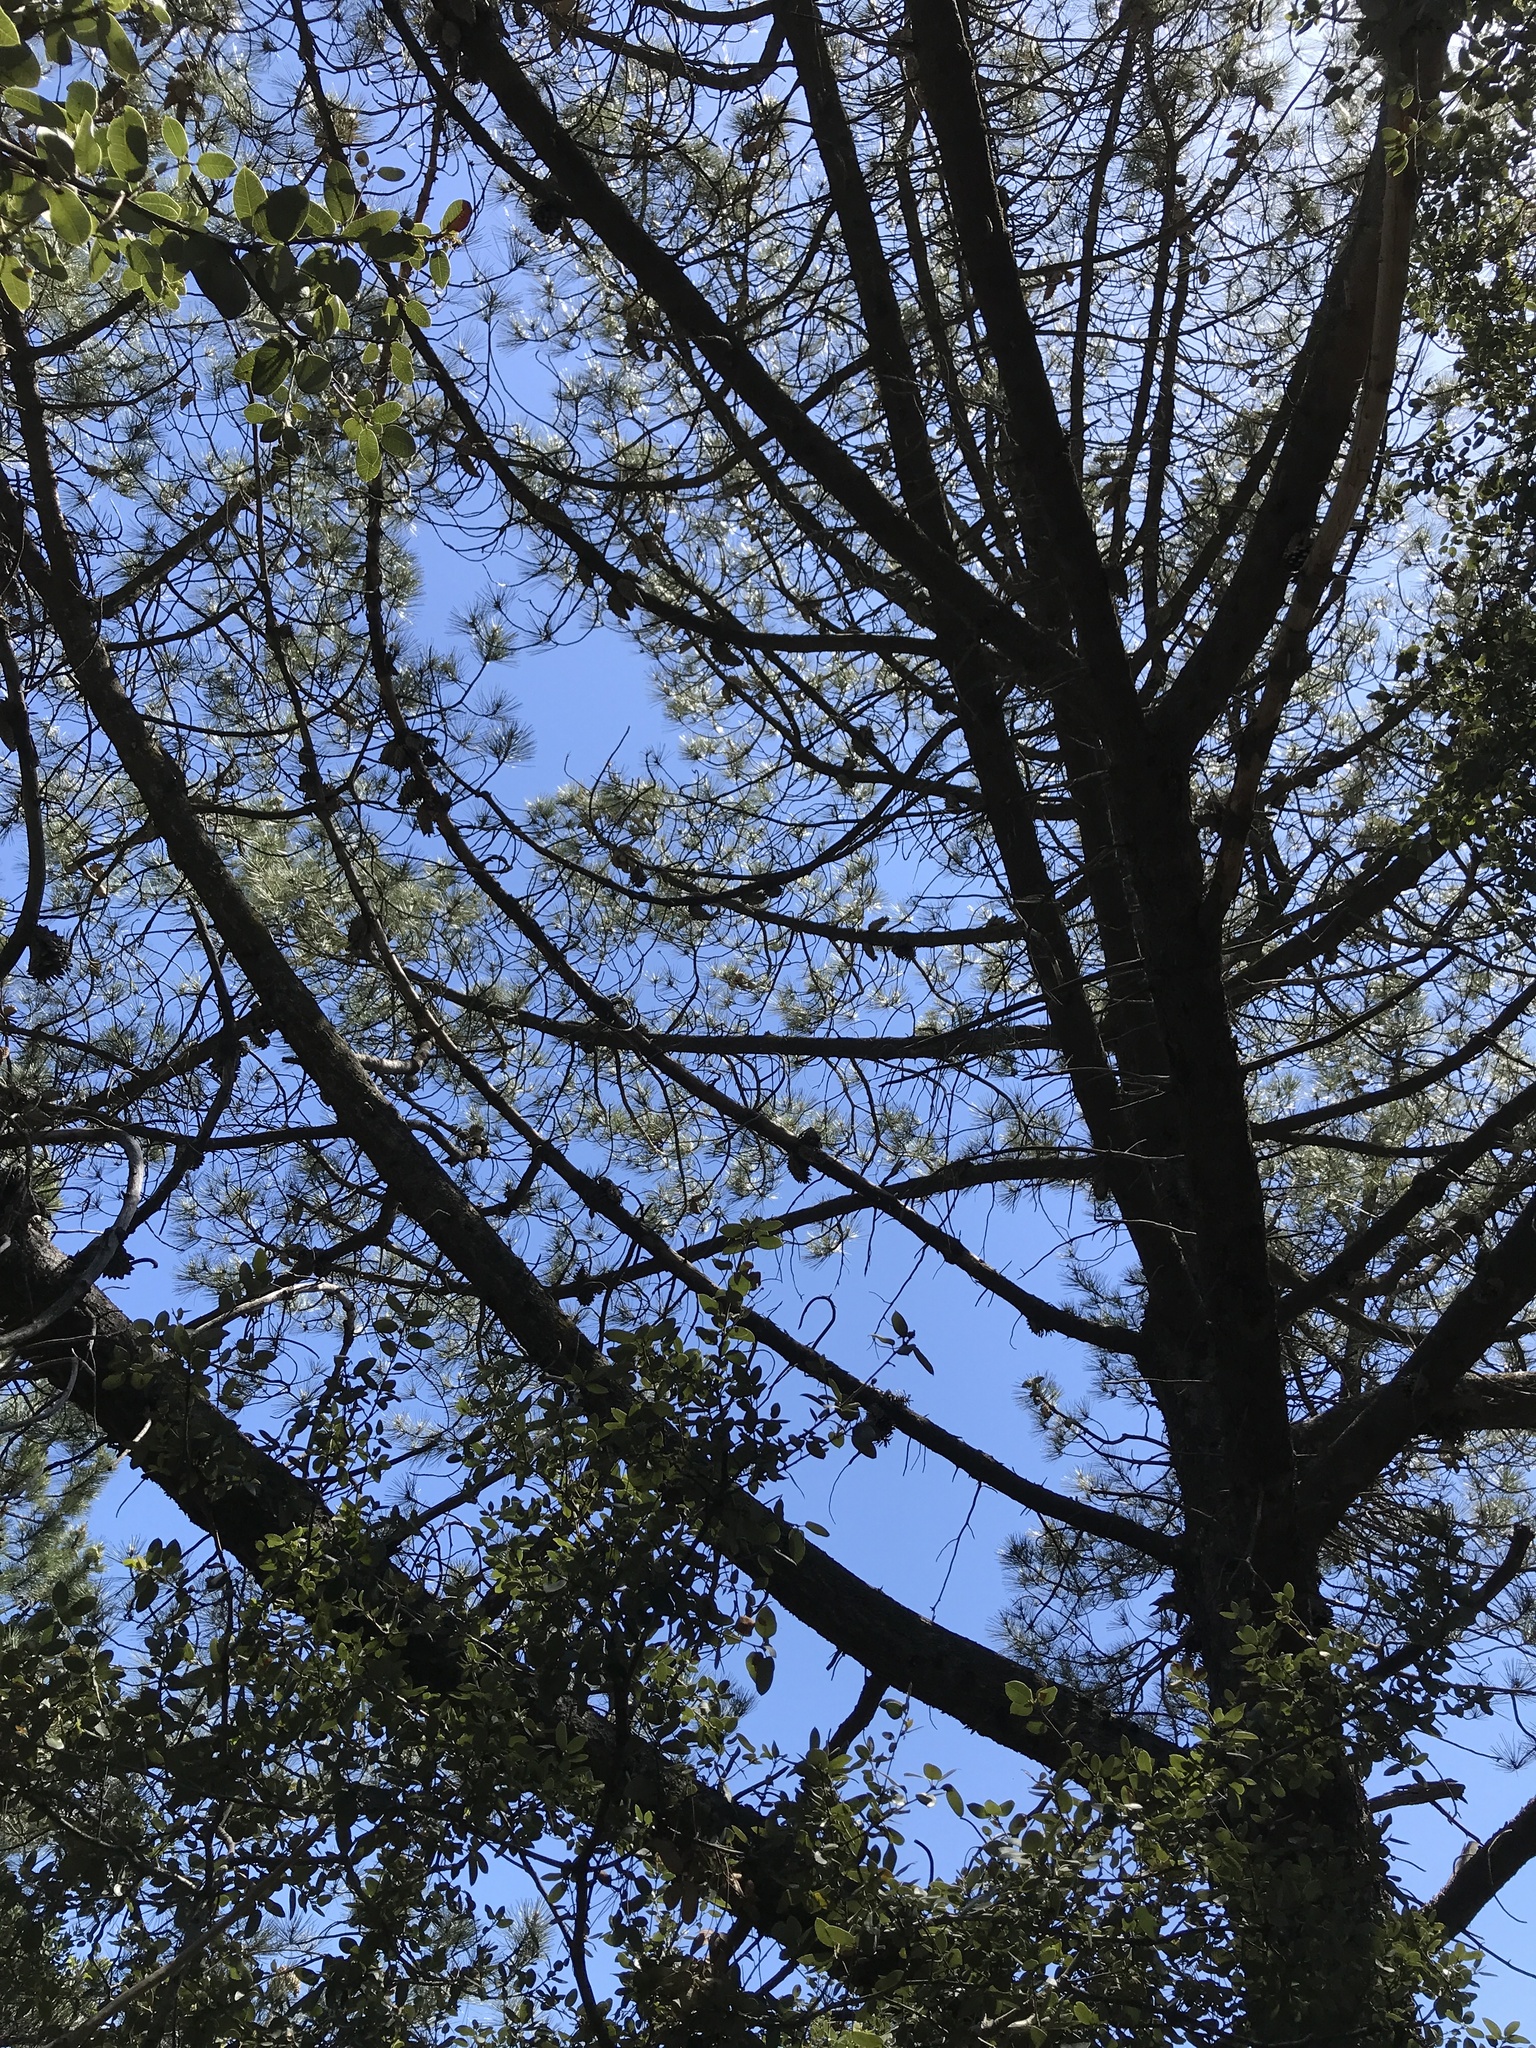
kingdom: Plantae
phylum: Tracheophyta
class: Pinopsida
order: Pinales
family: Pinaceae
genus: Pinus
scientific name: Pinus attenuata
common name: Knobcone pine
